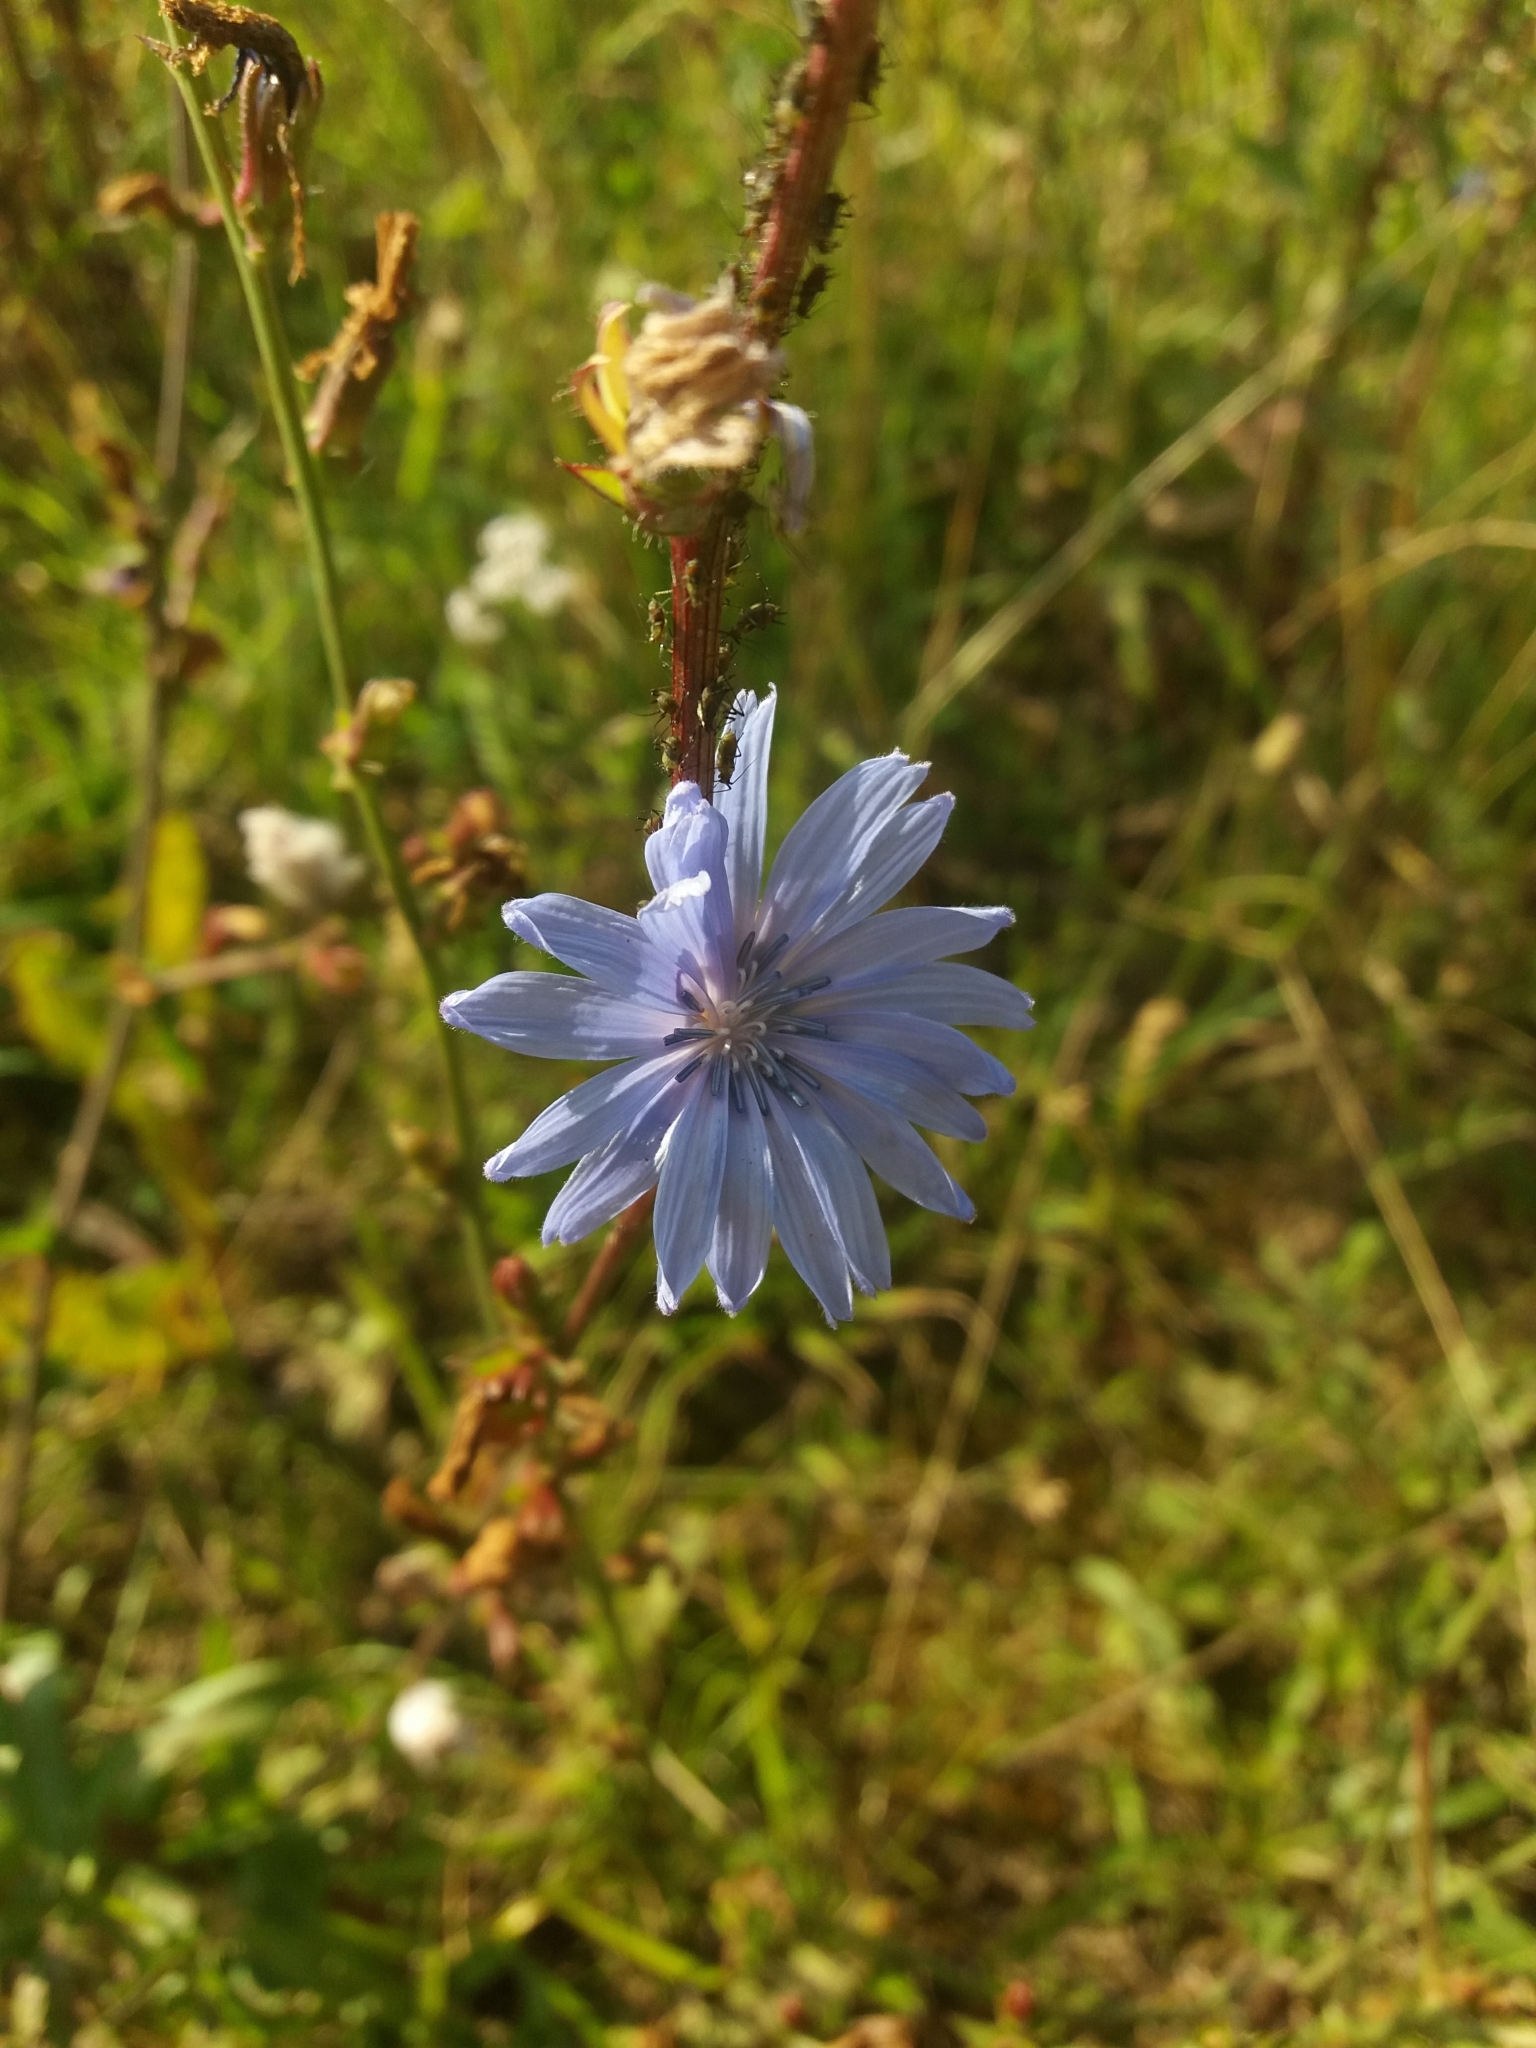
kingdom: Plantae
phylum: Tracheophyta
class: Magnoliopsida
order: Asterales
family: Asteraceae
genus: Cichorium
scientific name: Cichorium intybus
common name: Chicory
